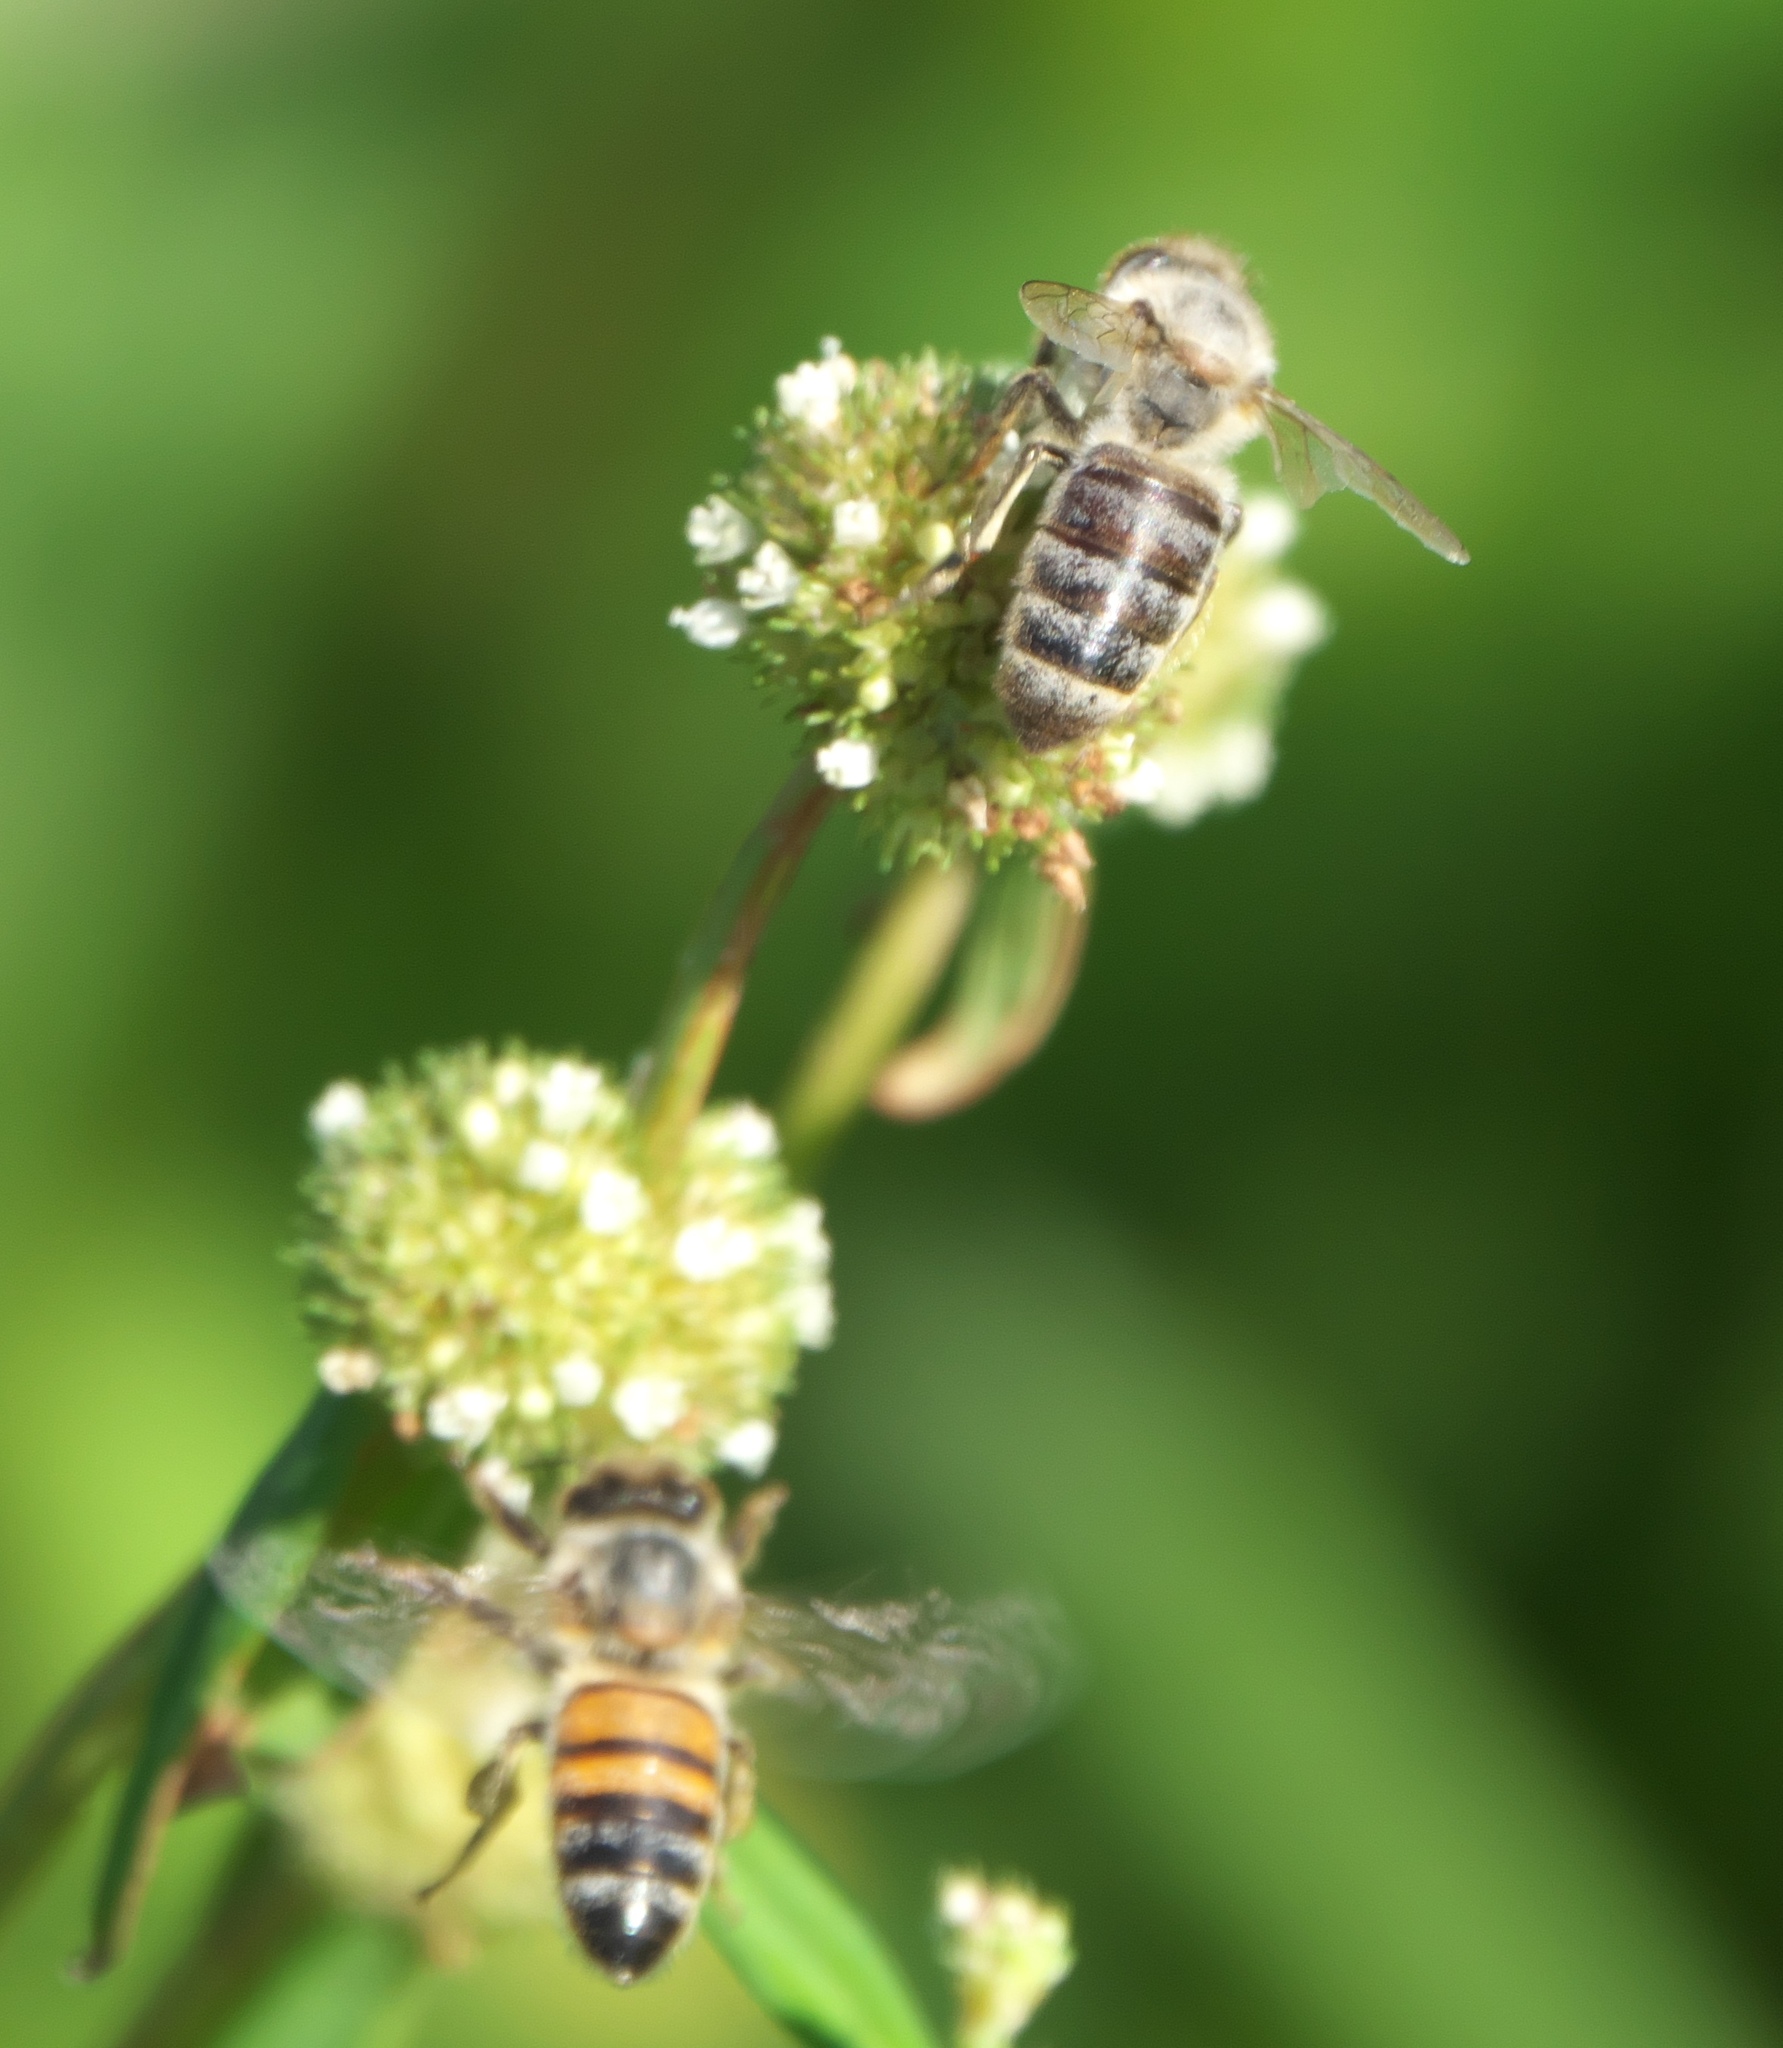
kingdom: Animalia
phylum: Arthropoda
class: Insecta
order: Hymenoptera
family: Apidae
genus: Apis
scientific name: Apis mellifera
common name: Honey bee
